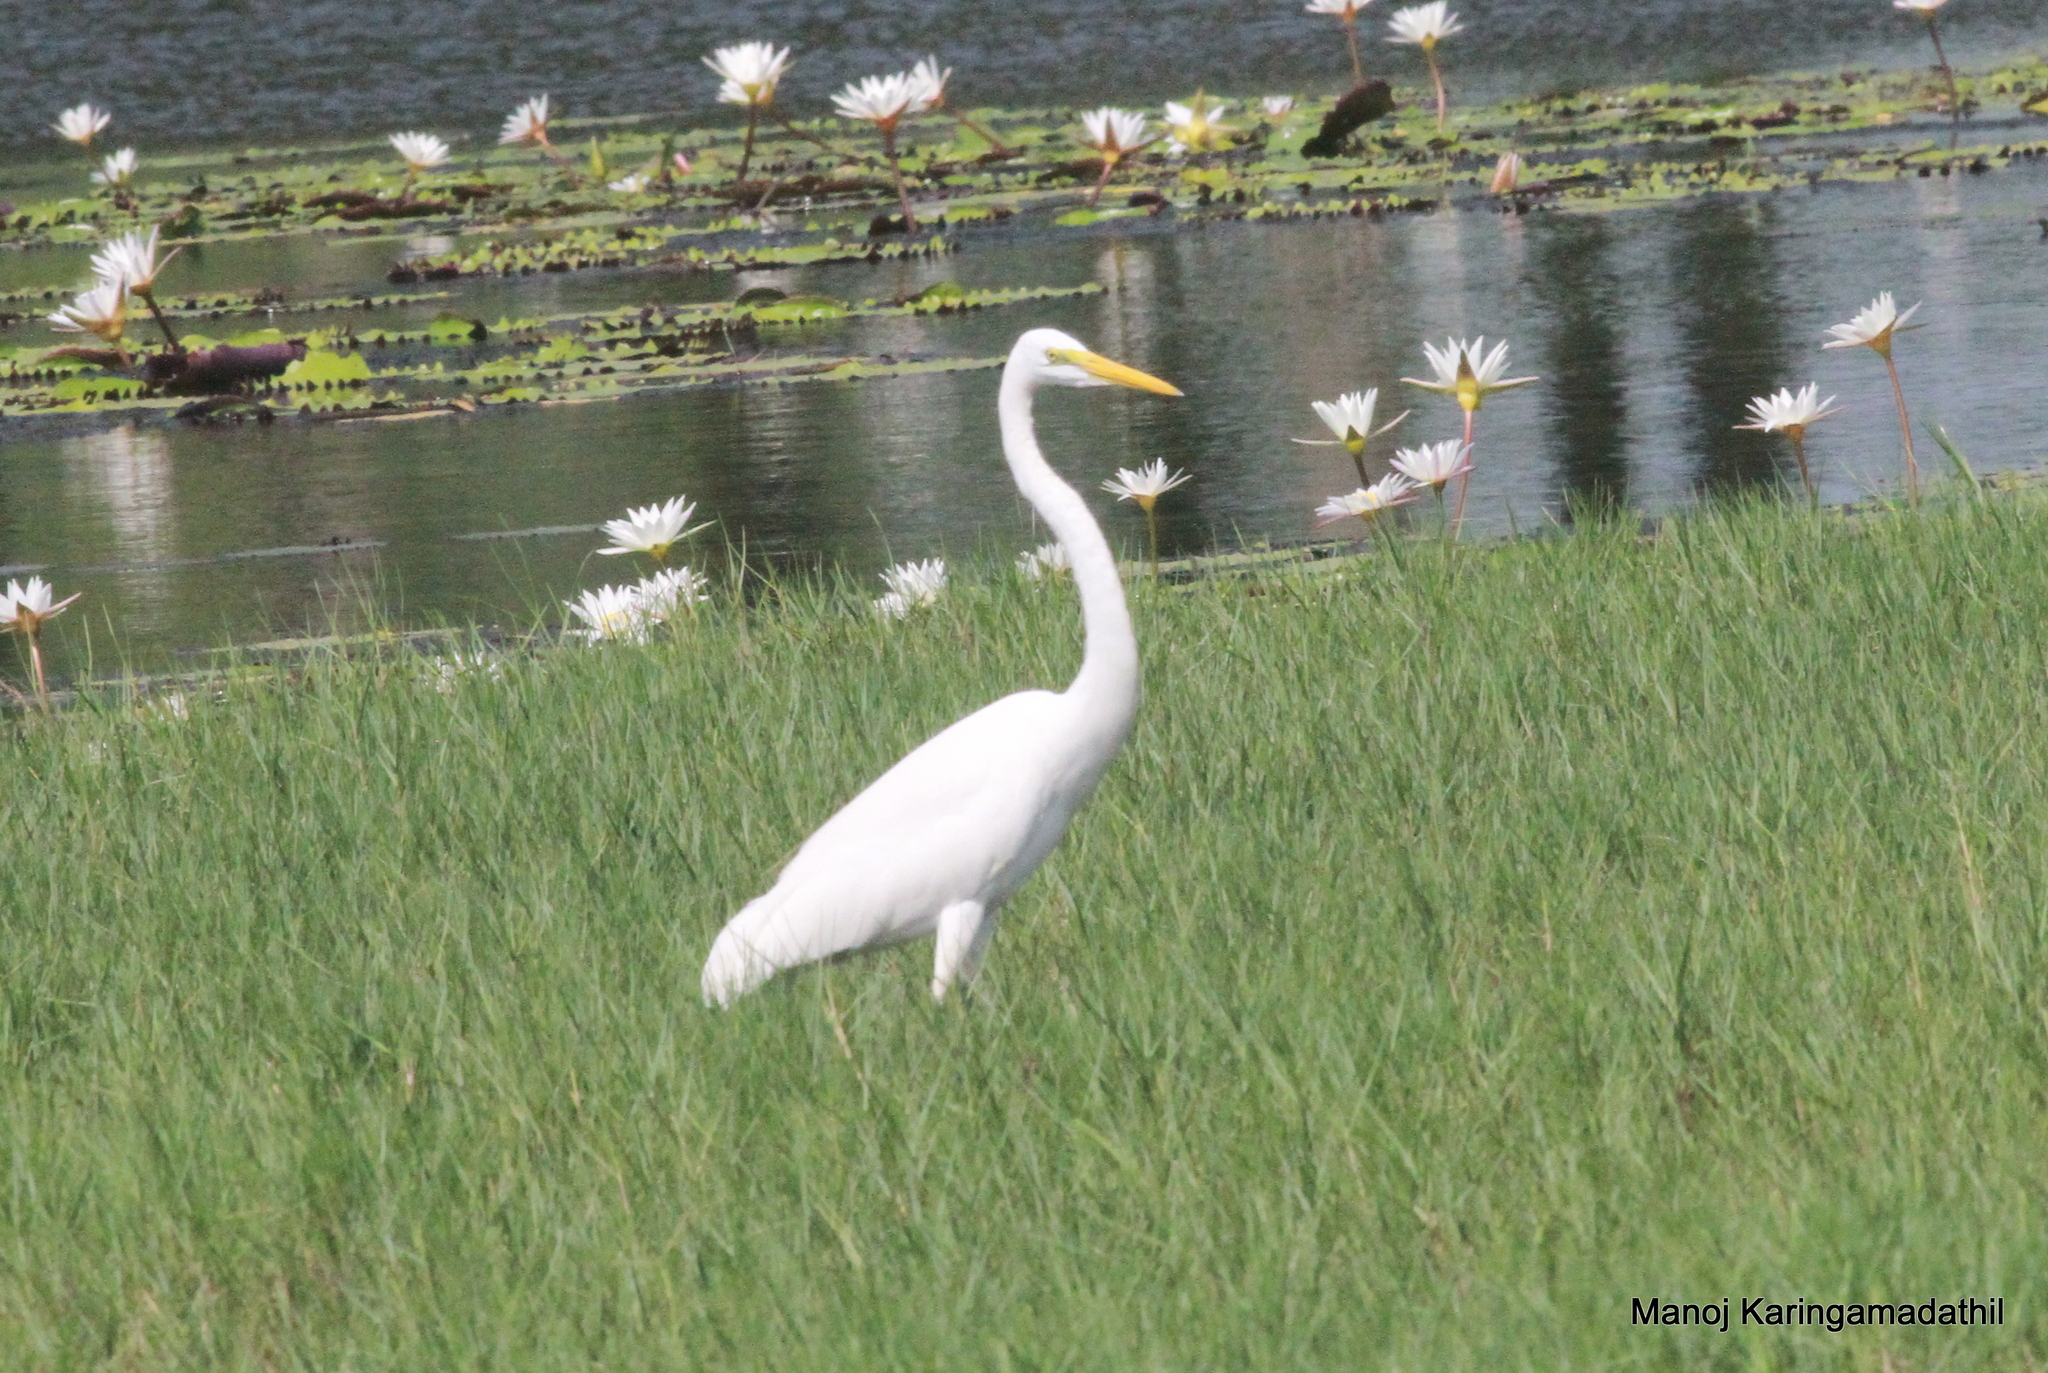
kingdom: Animalia
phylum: Chordata
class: Aves
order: Pelecaniformes
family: Ardeidae
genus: Ardea
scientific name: Ardea alba
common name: Great egret
